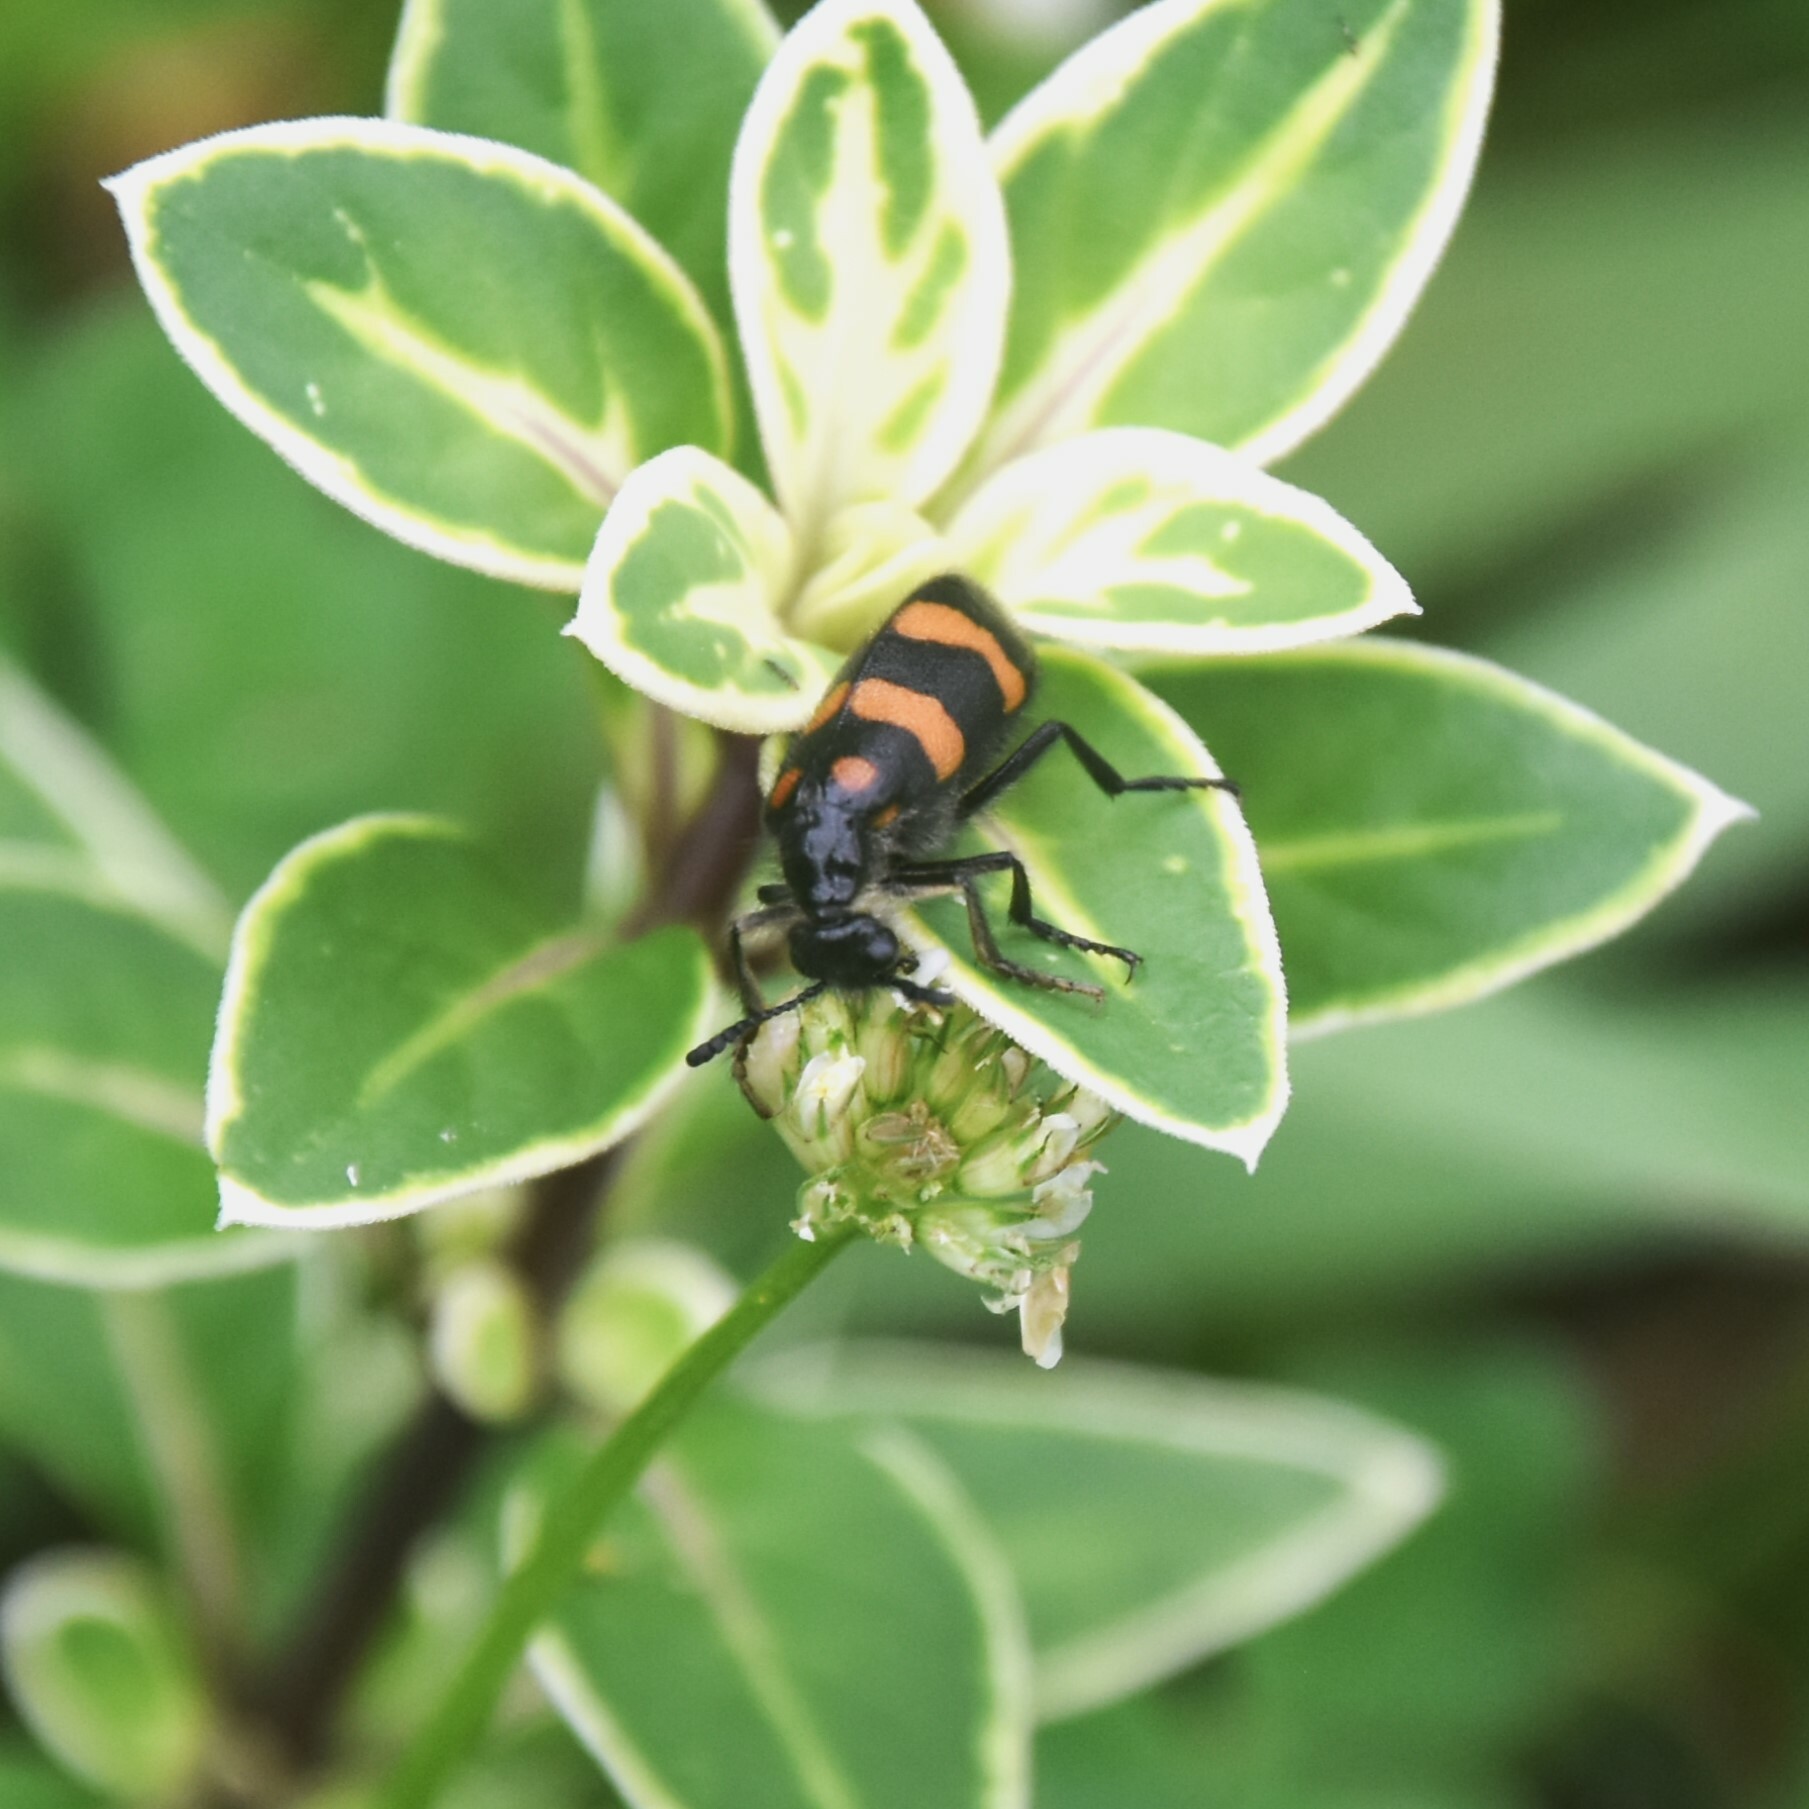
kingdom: Animalia
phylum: Arthropoda
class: Insecta
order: Coleoptera
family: Meloidae
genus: Hycleus
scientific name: Hycleus biundulatus
